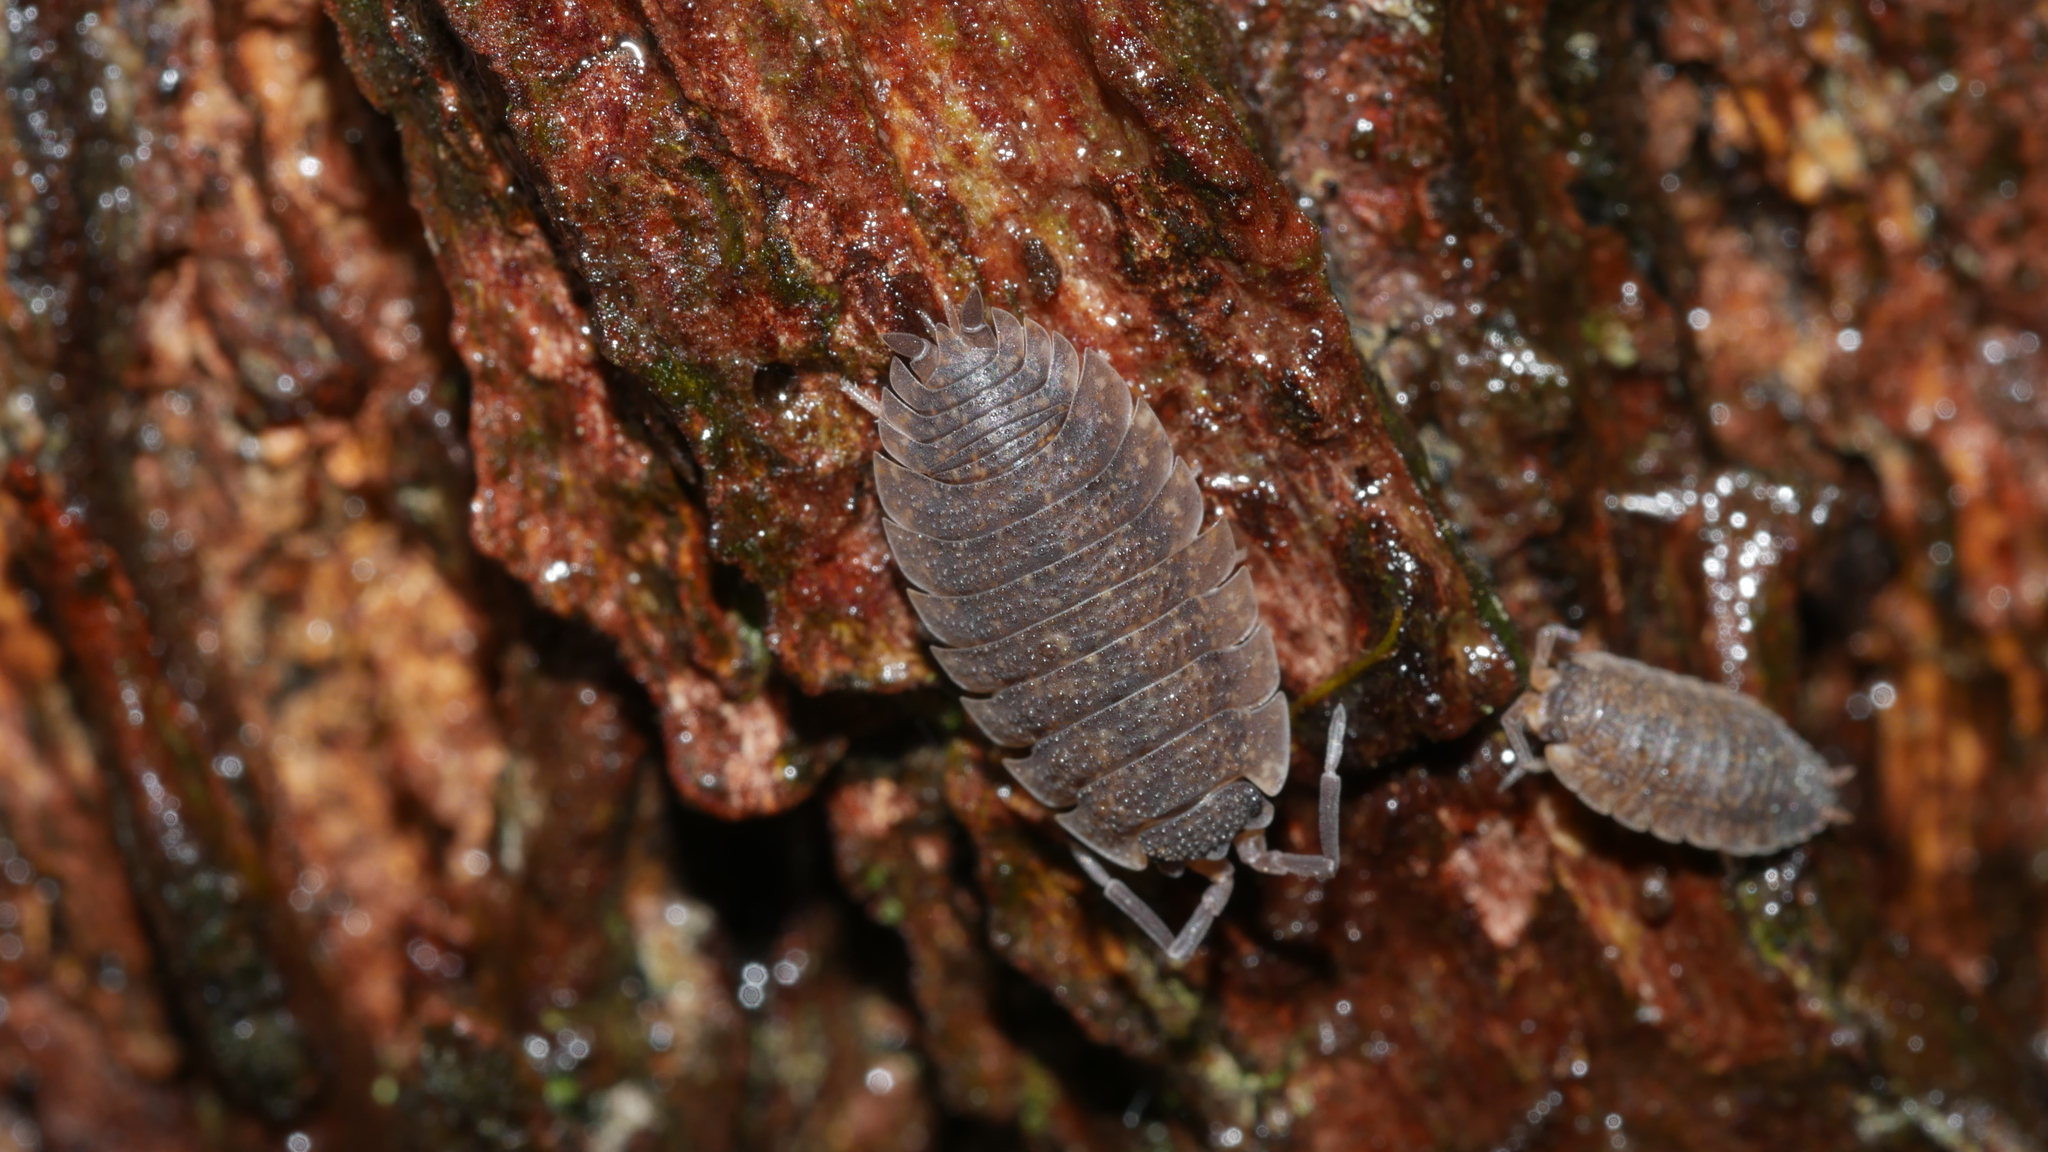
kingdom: Animalia
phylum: Arthropoda
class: Malacostraca
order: Isopoda
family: Porcellionidae
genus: Porcellio
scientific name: Porcellio scaber
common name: Common rough woodlouse
